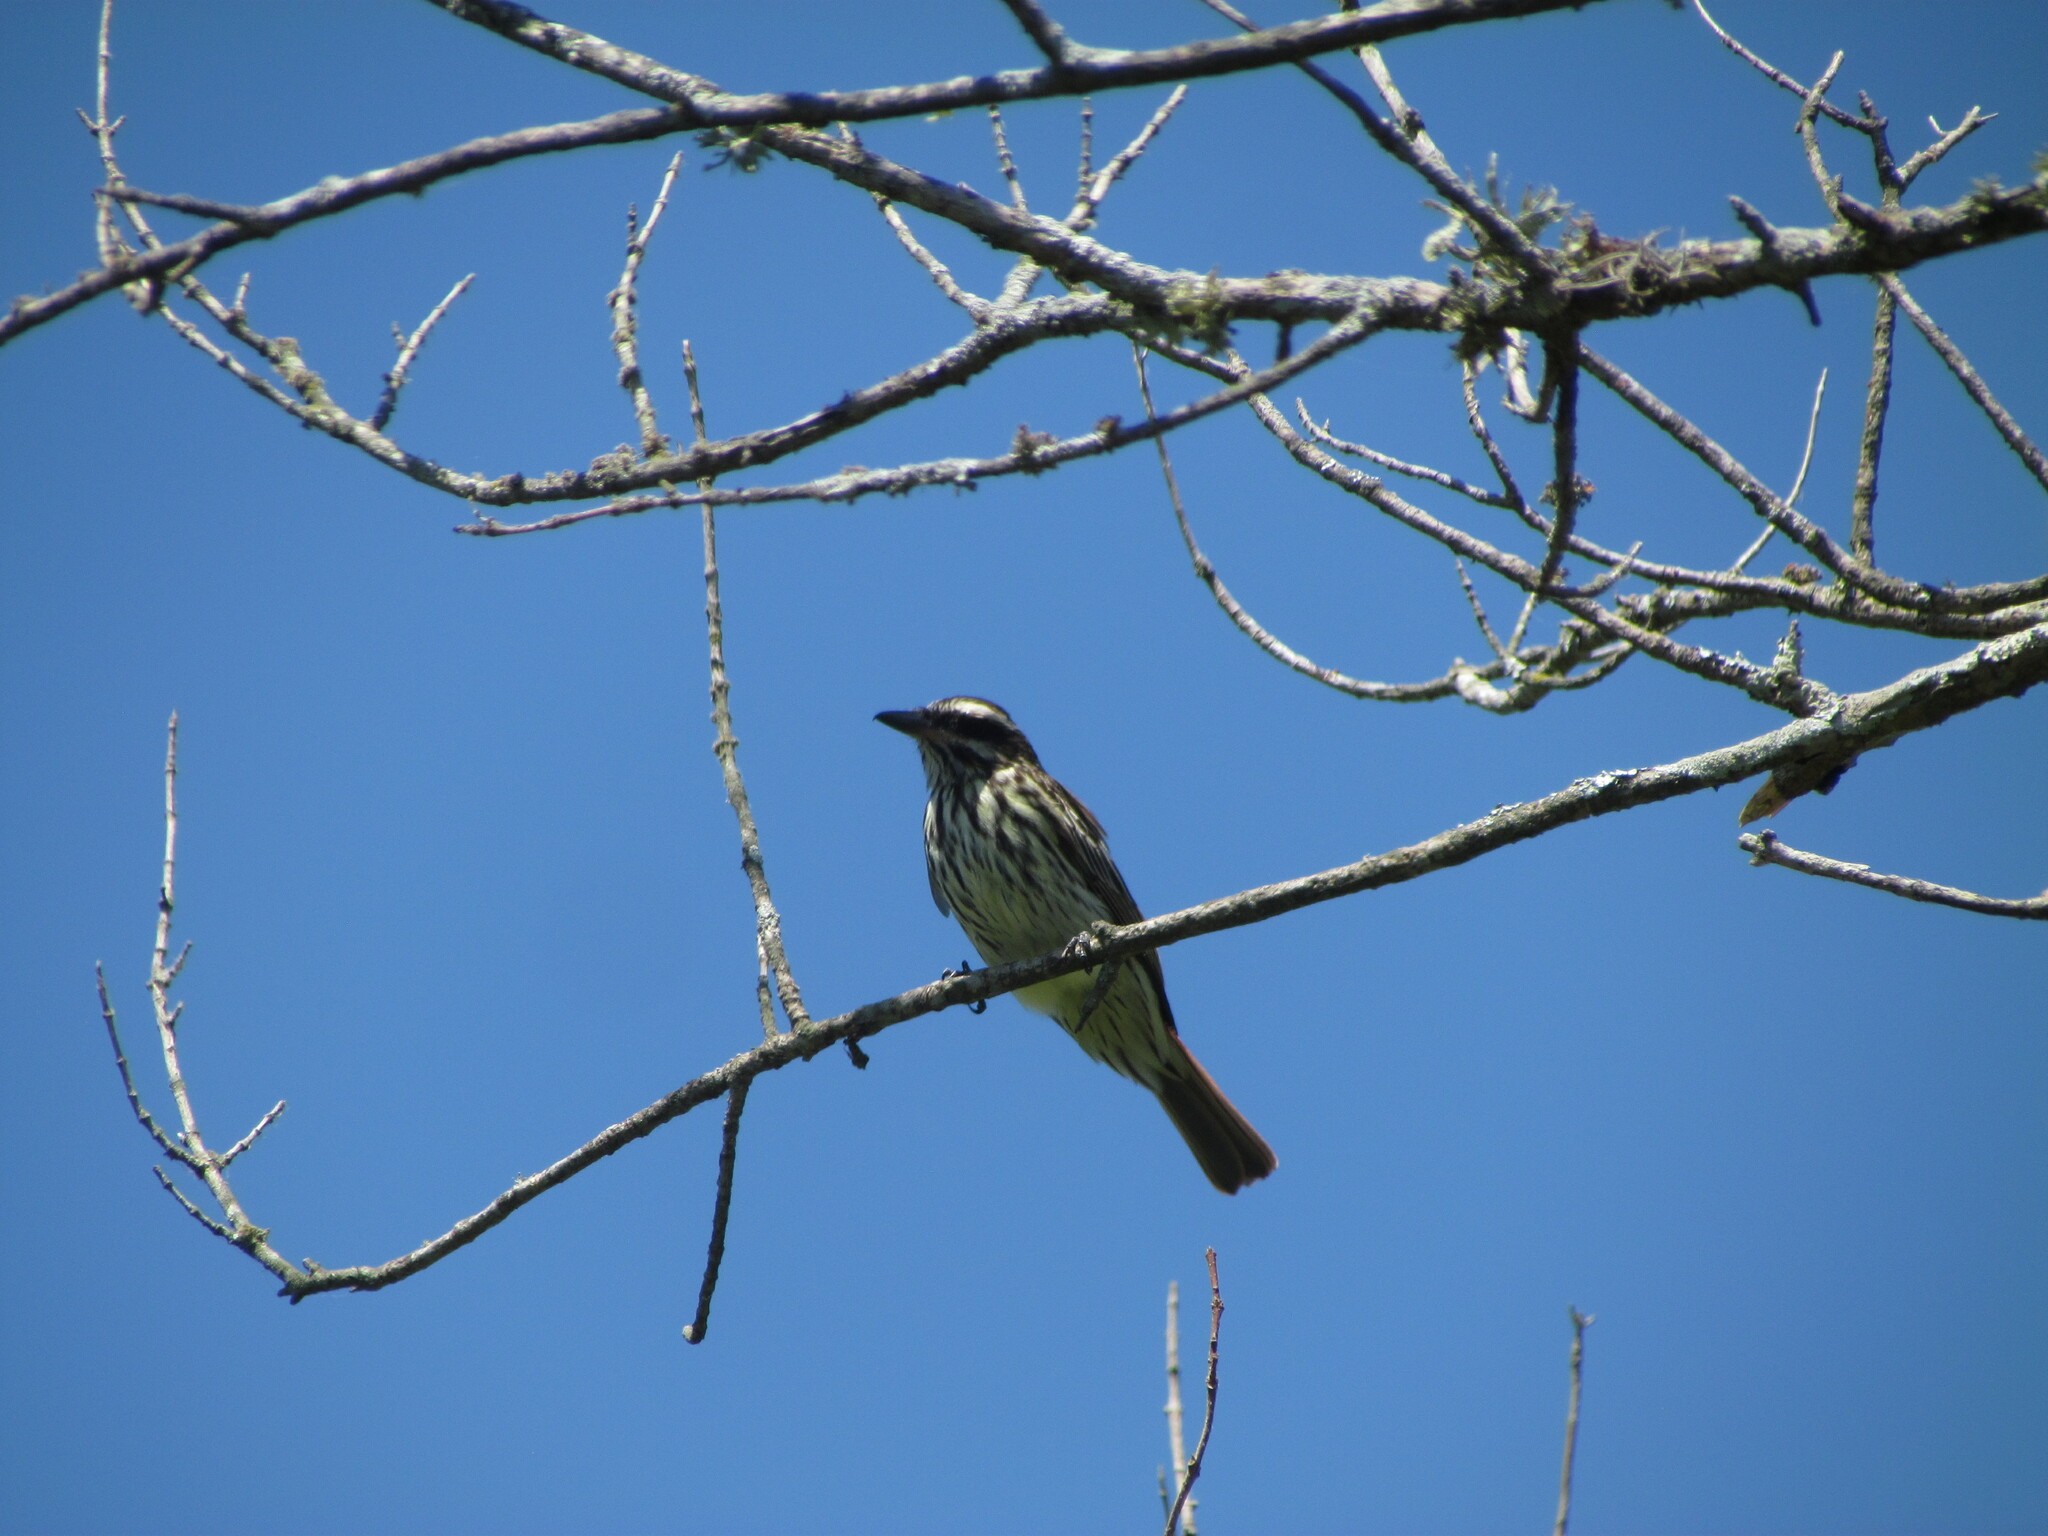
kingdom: Animalia
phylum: Chordata
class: Aves
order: Passeriformes
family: Tyrannidae
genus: Myiodynastes
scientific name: Myiodynastes maculatus
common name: Streaked flycatcher
